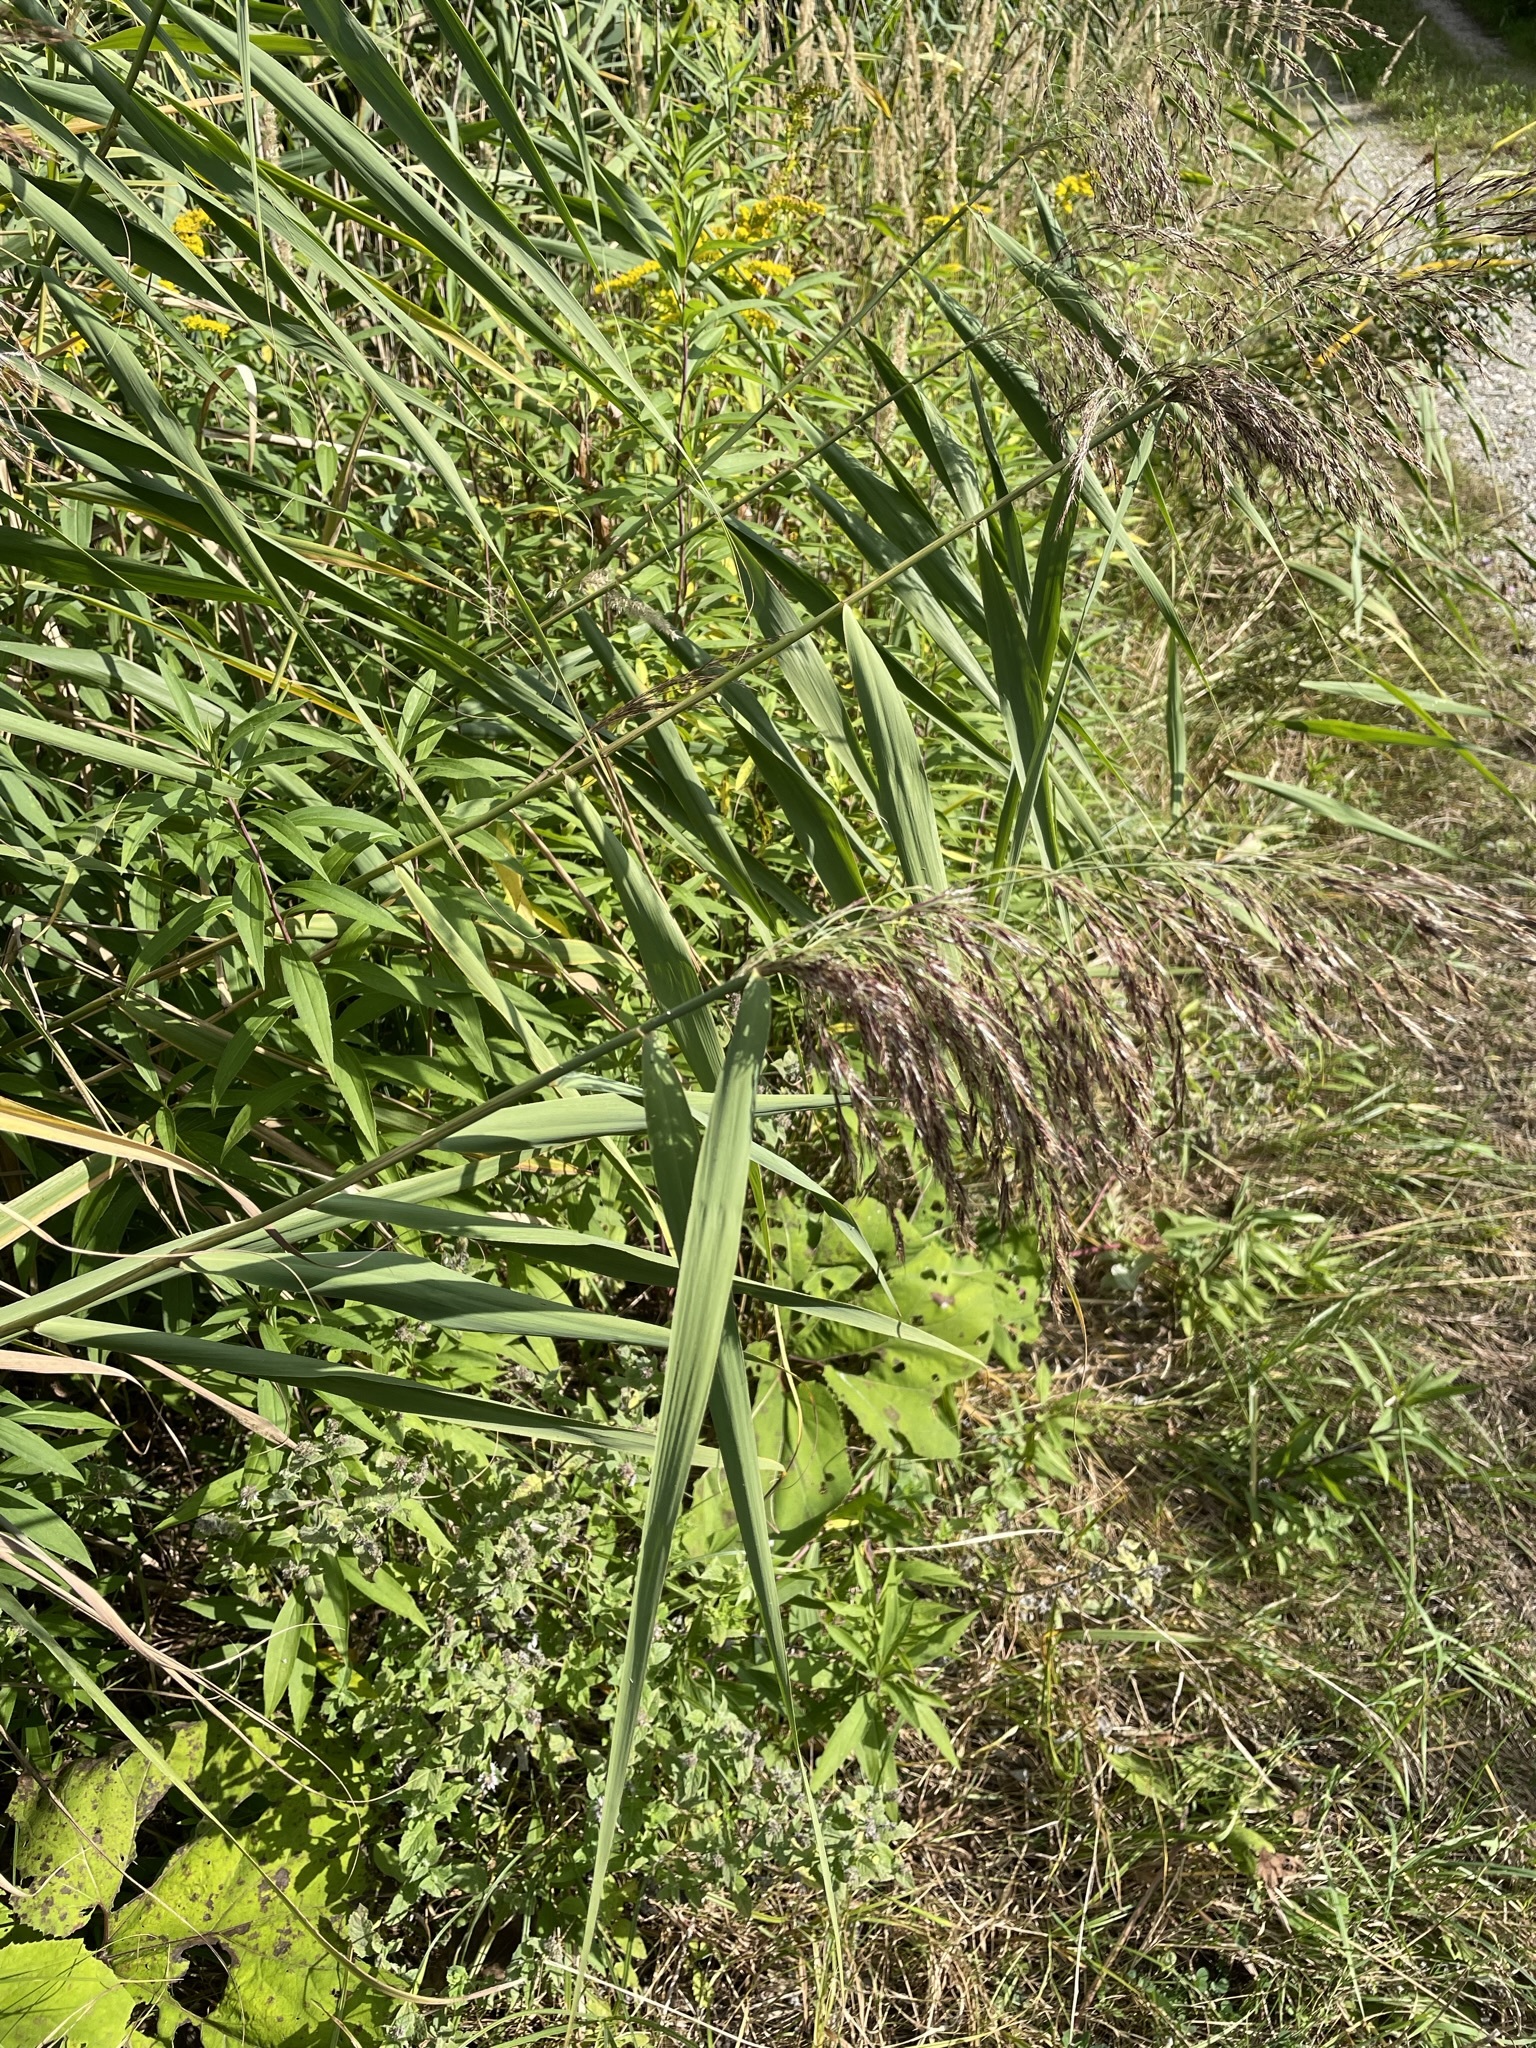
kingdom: Plantae
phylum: Tracheophyta
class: Liliopsida
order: Poales
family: Poaceae
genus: Phragmites
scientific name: Phragmites australis
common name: Common reed
